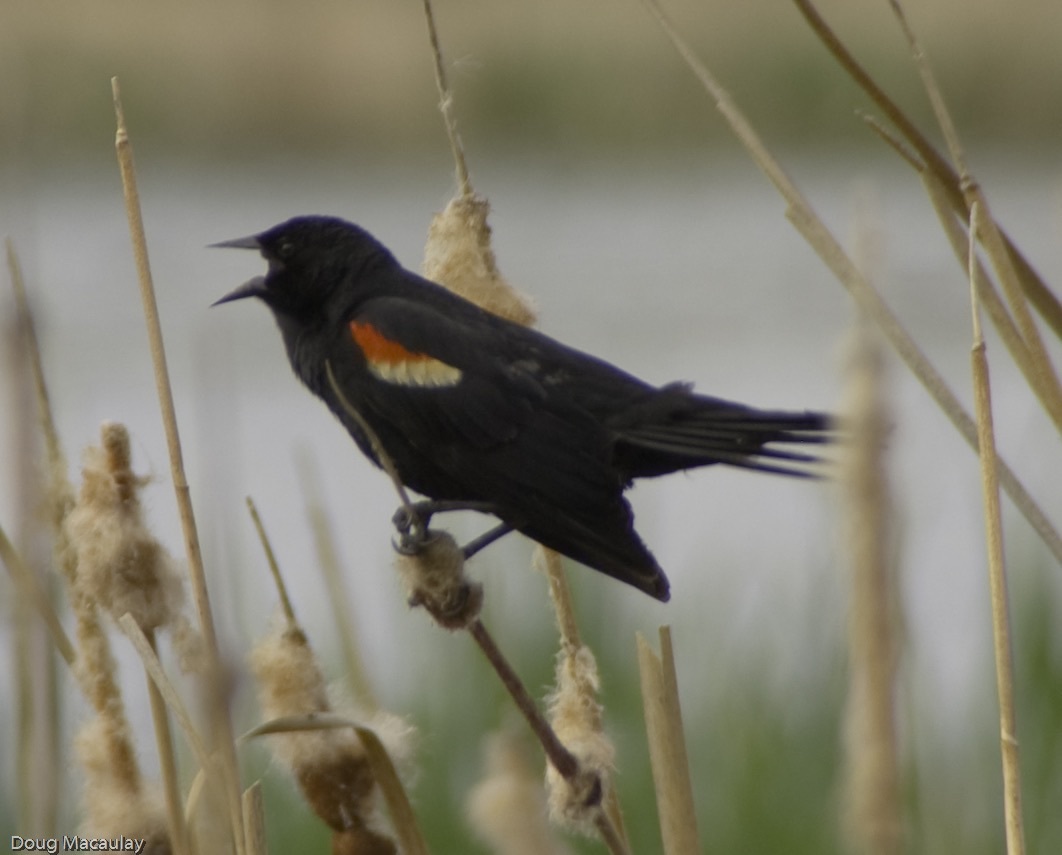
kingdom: Animalia
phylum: Chordata
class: Aves
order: Passeriformes
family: Icteridae
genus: Agelaius
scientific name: Agelaius phoeniceus
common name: Red-winged blackbird
